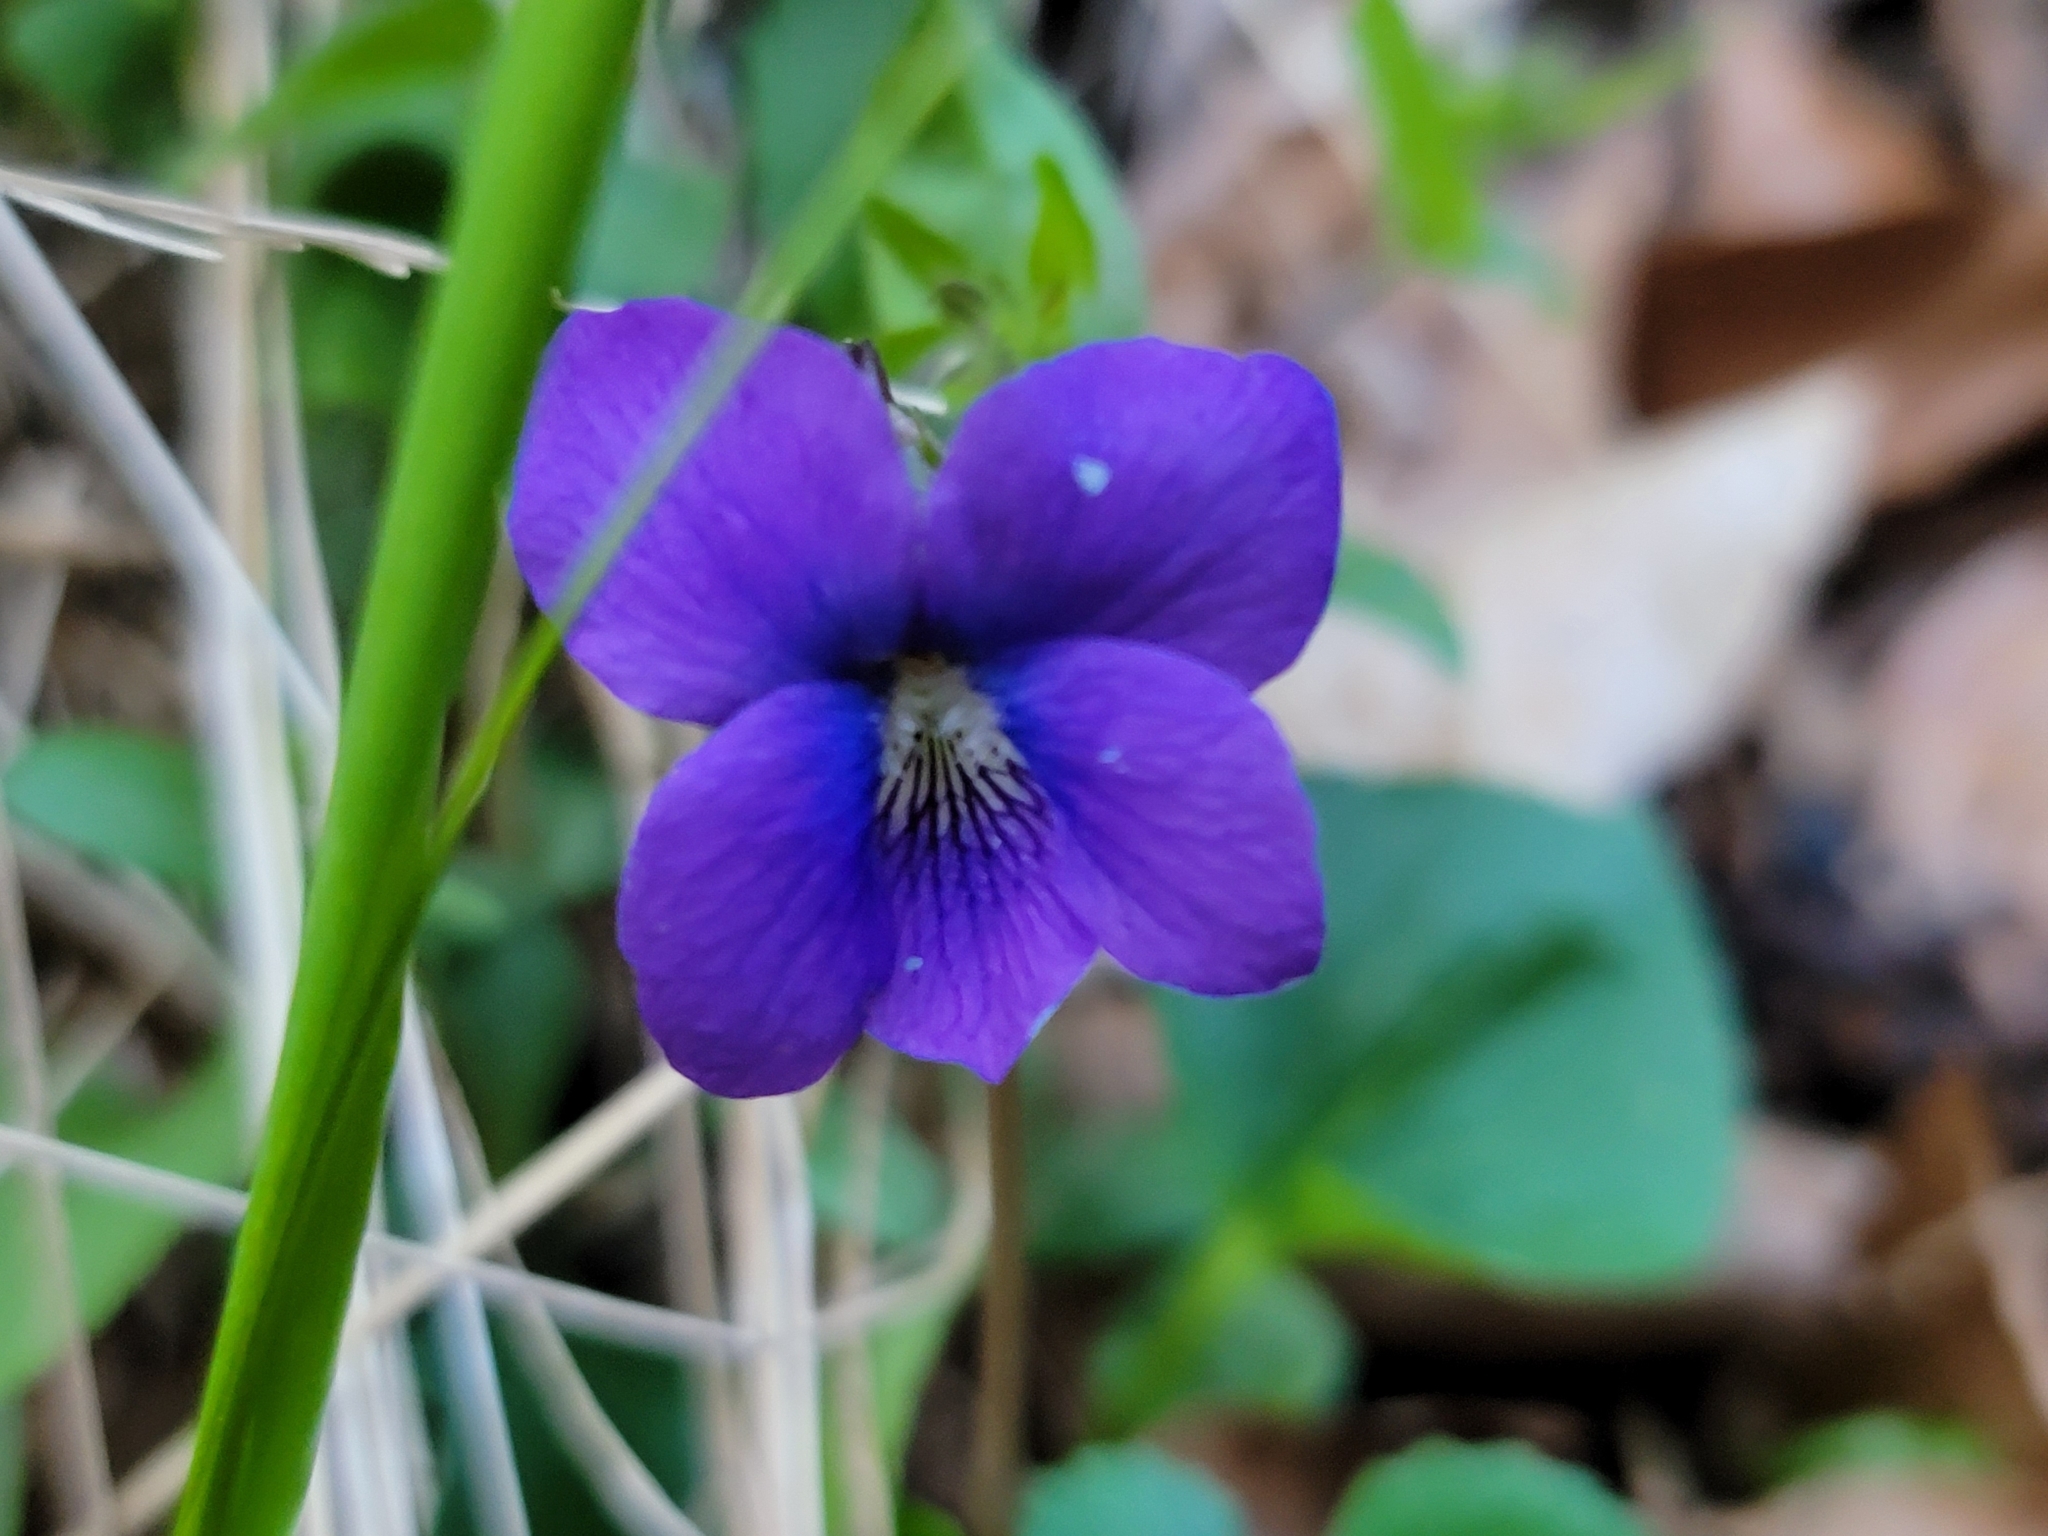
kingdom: Plantae
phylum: Tracheophyta
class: Magnoliopsida
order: Malpighiales
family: Violaceae
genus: Viola
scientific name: Viola sororia
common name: Dooryard violet
